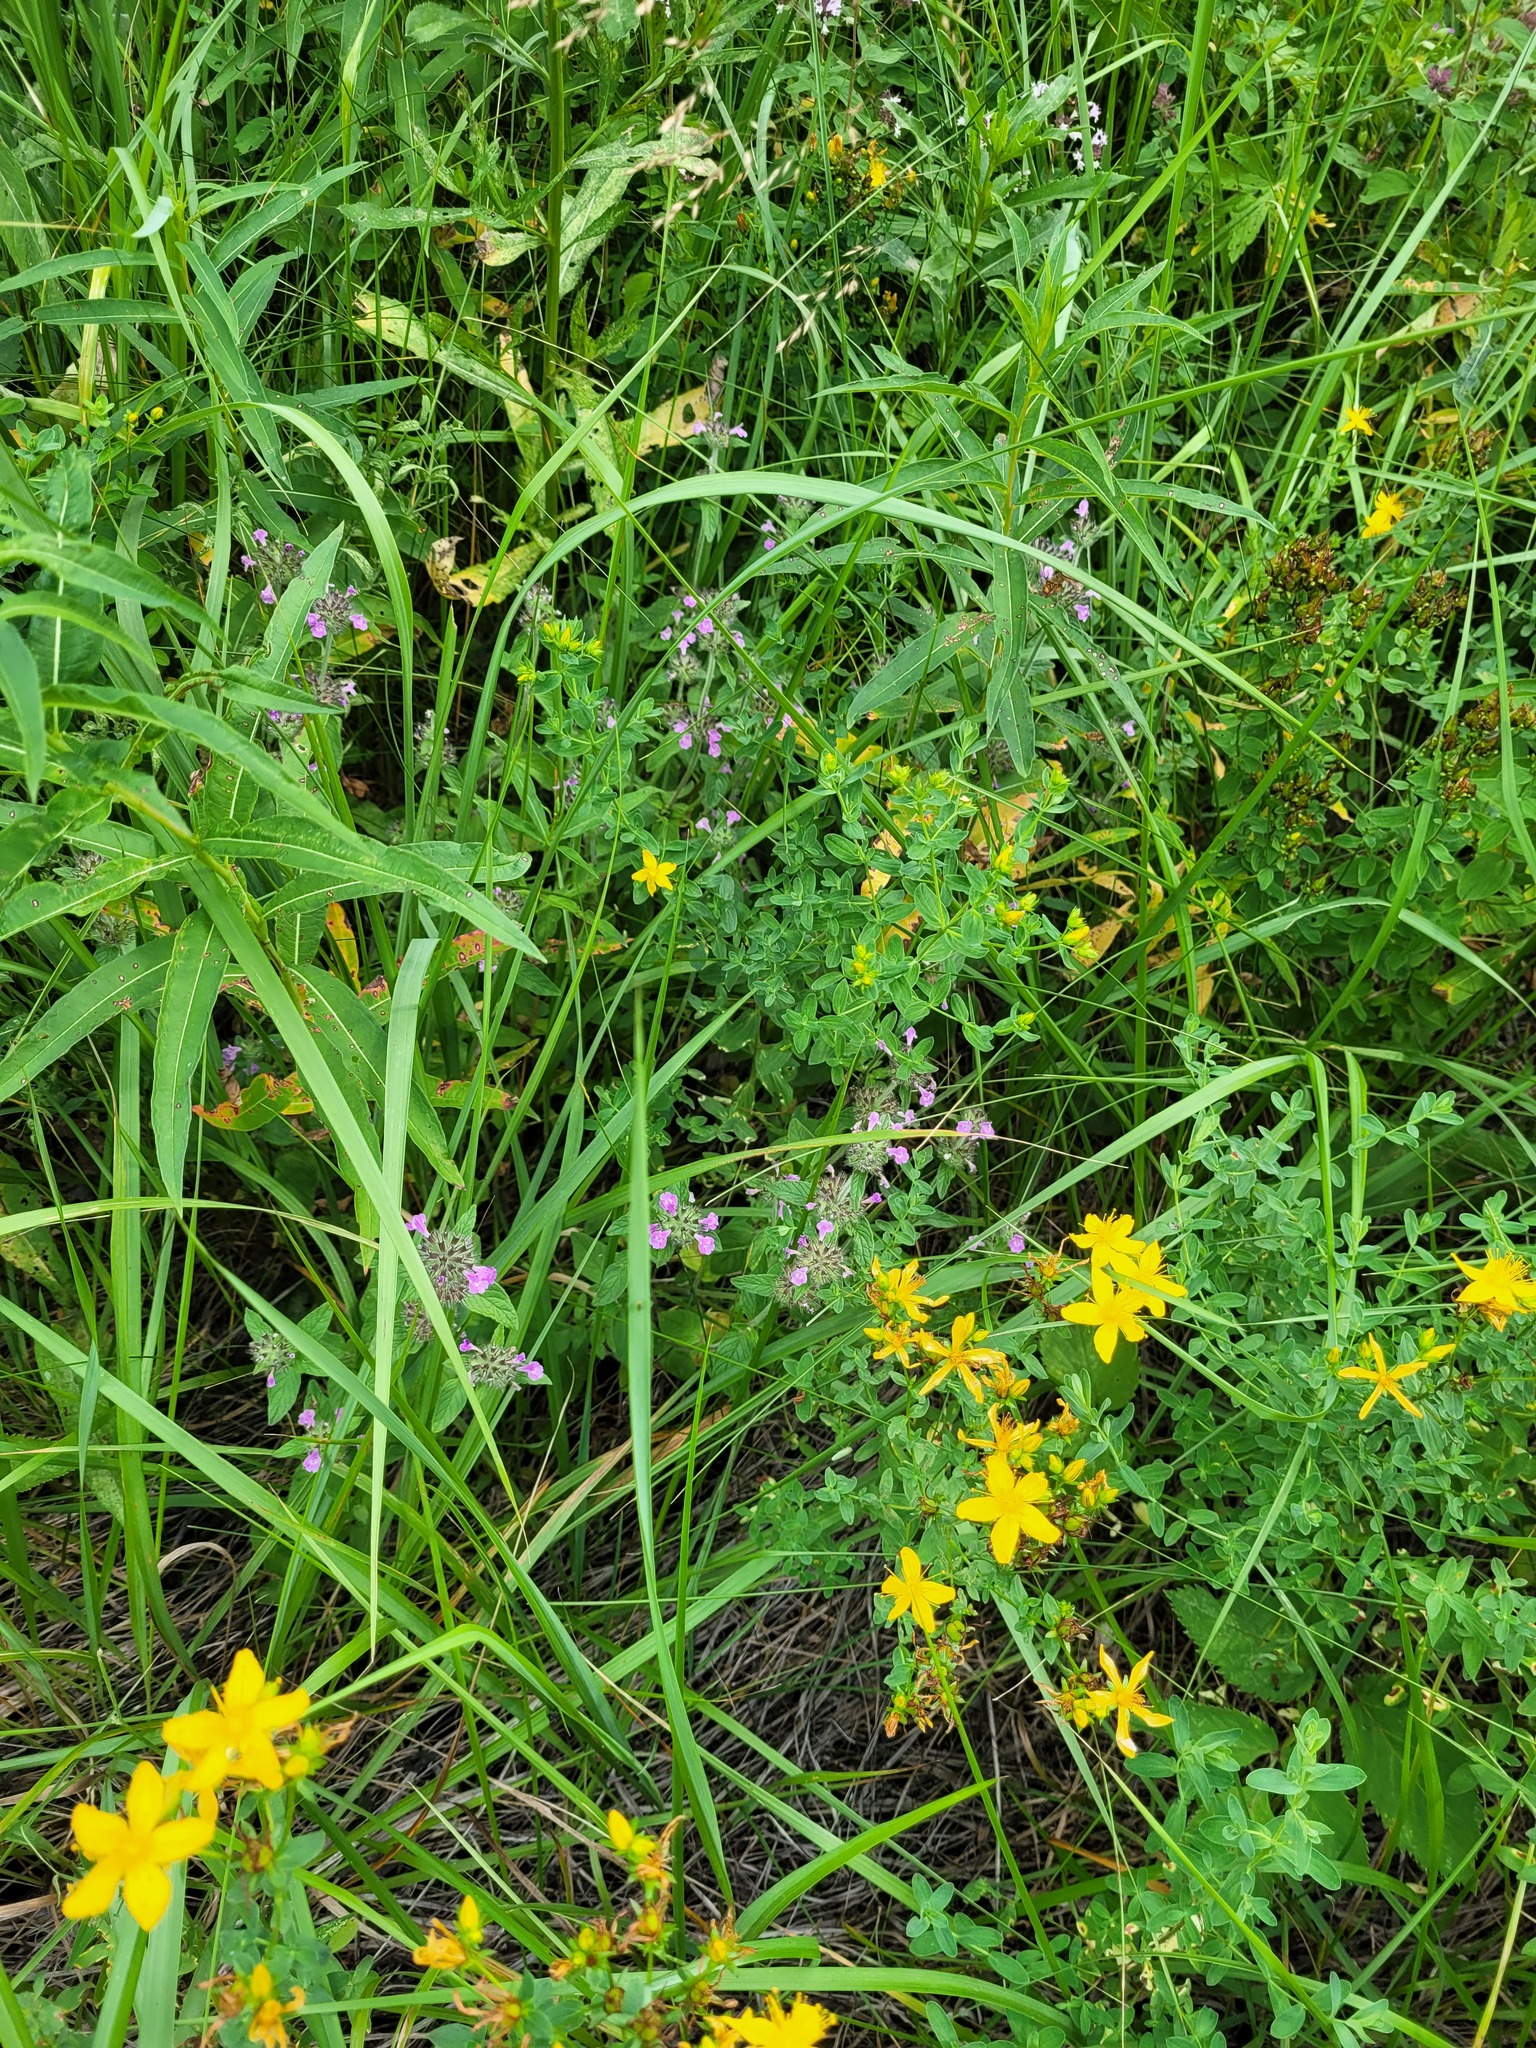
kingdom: Plantae
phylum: Tracheophyta
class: Magnoliopsida
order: Lamiales
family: Lamiaceae
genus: Clinopodium
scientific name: Clinopodium vulgare
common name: Wild basil
